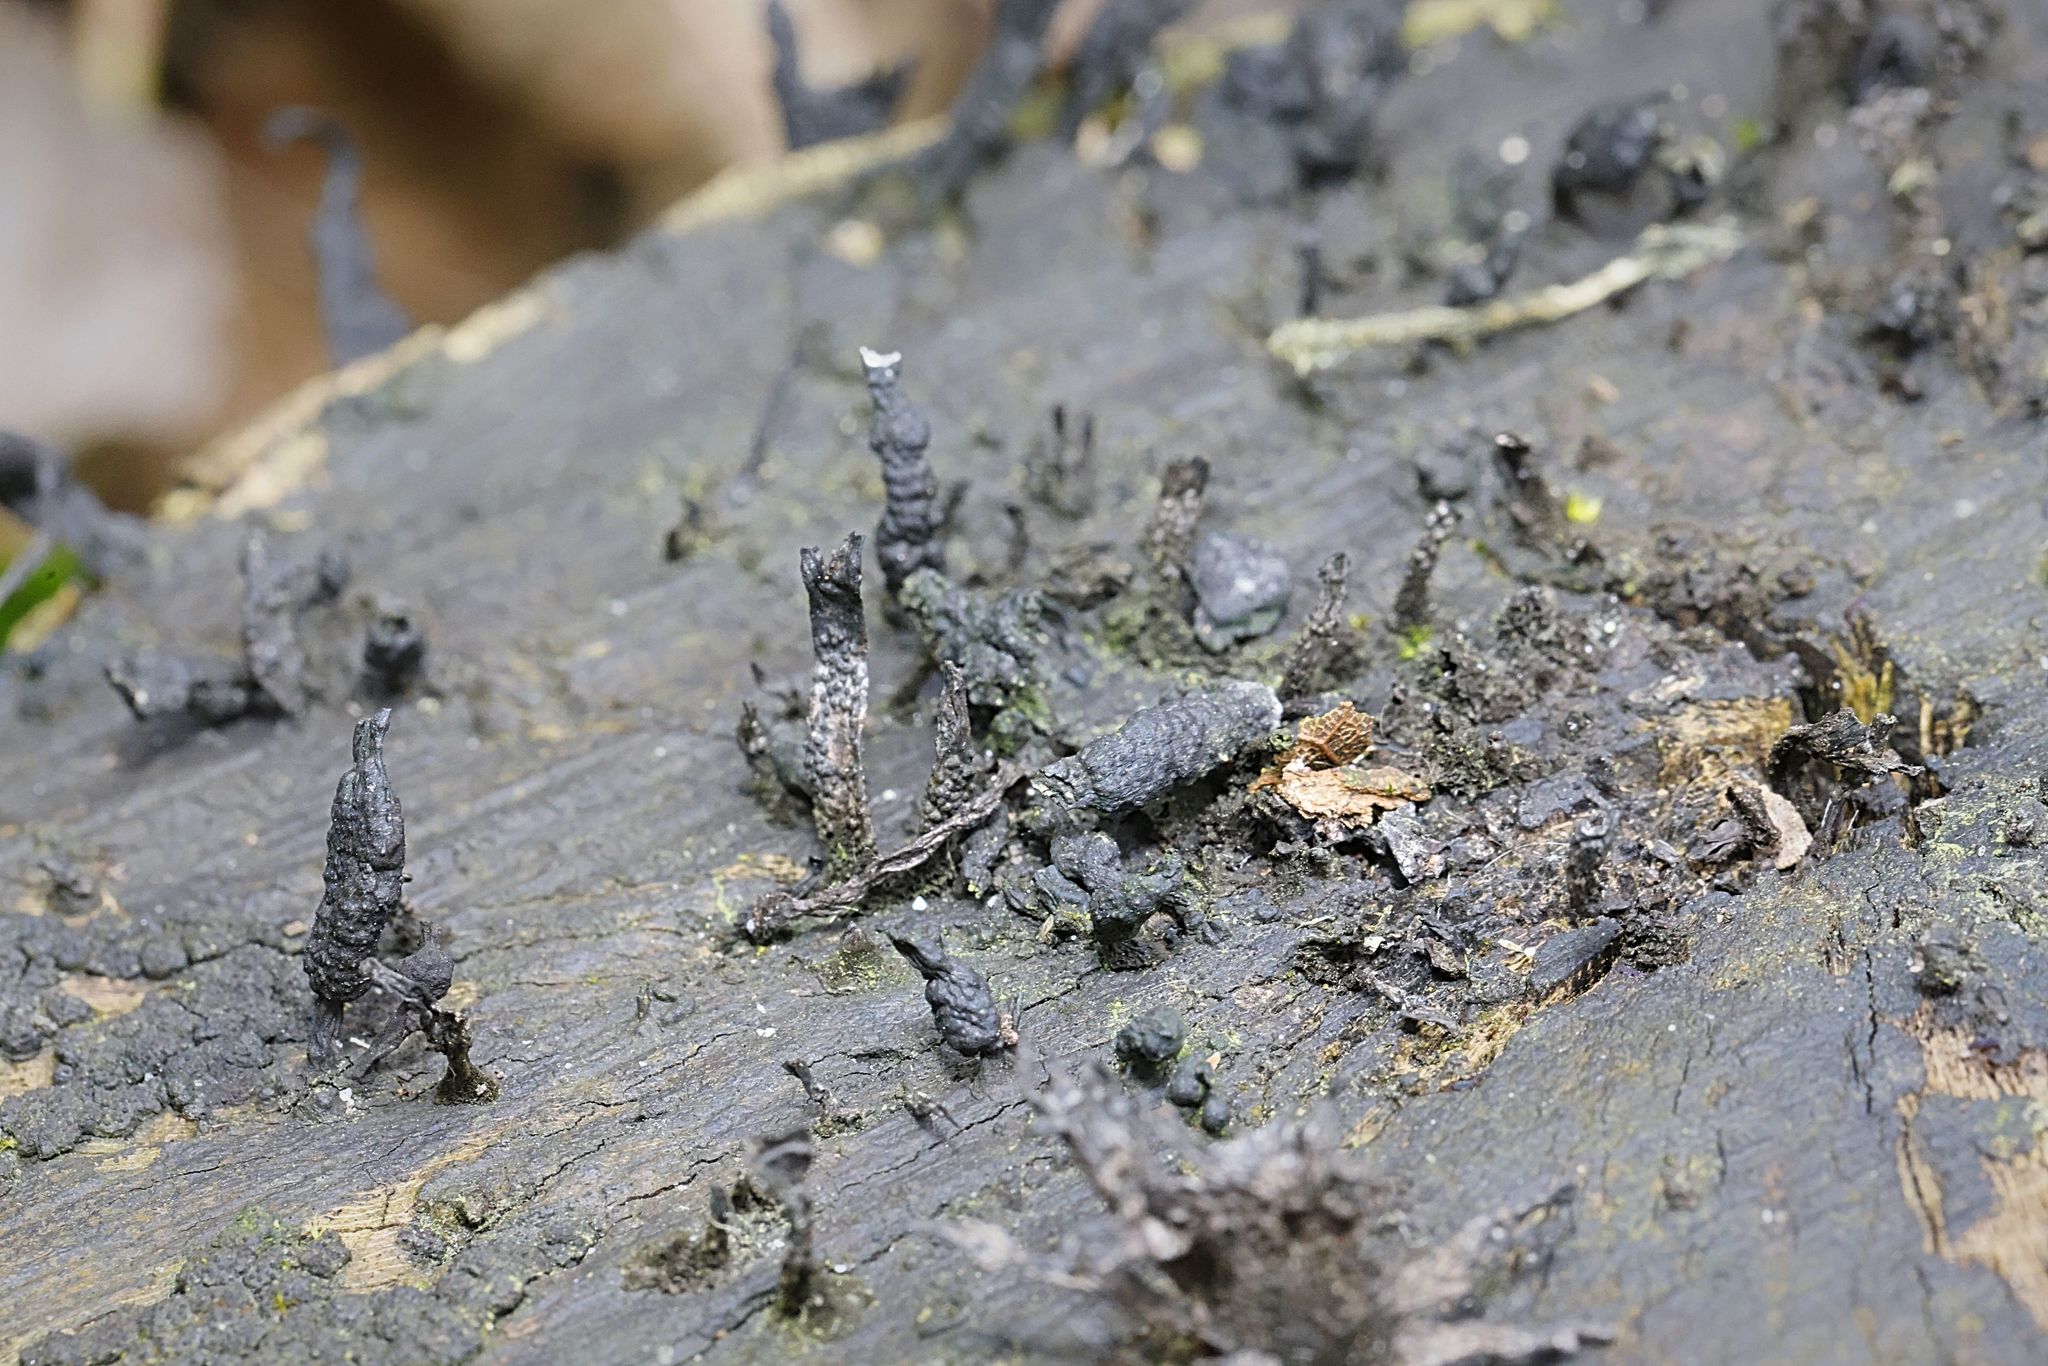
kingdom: Fungi
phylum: Ascomycota
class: Sordariomycetes
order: Xylariales
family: Xylariaceae
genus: Xylaria
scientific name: Xylaria hypoxylon
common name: Candle-snuff fungus
